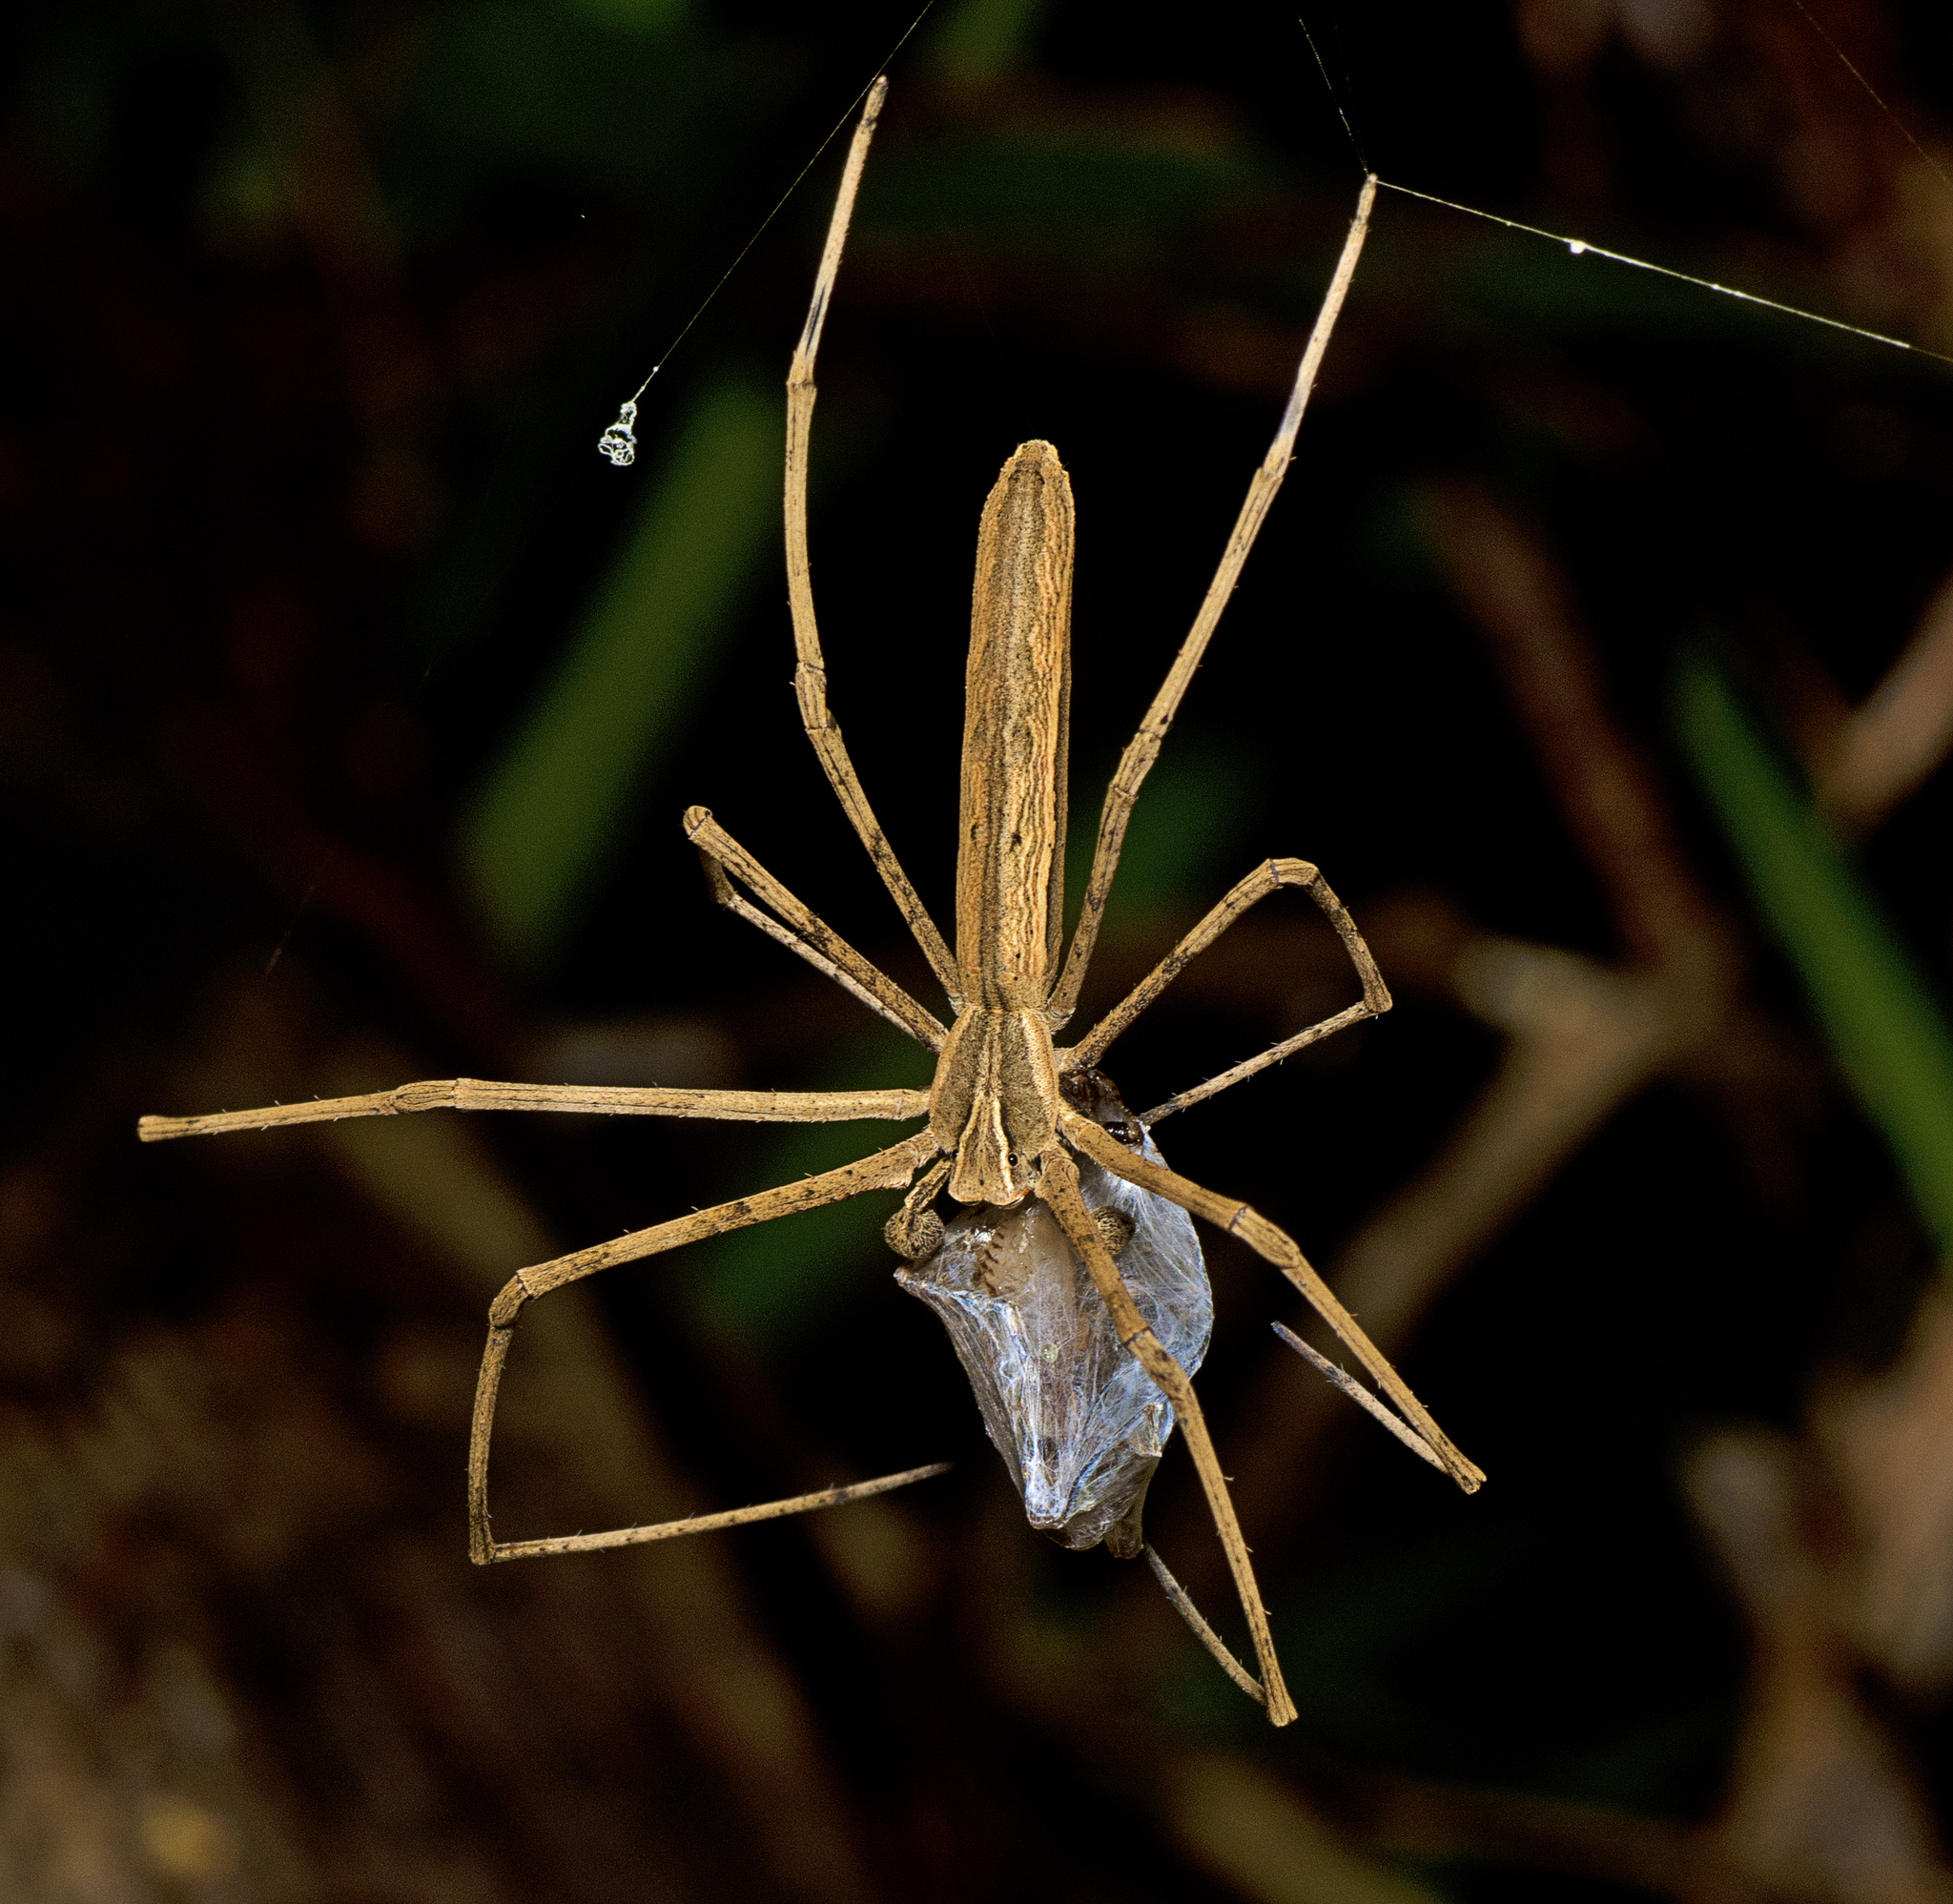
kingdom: Animalia
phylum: Arthropoda
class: Arachnida
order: Araneae
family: Deinopidae
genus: Deinopis
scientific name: Deinopis subrufa
